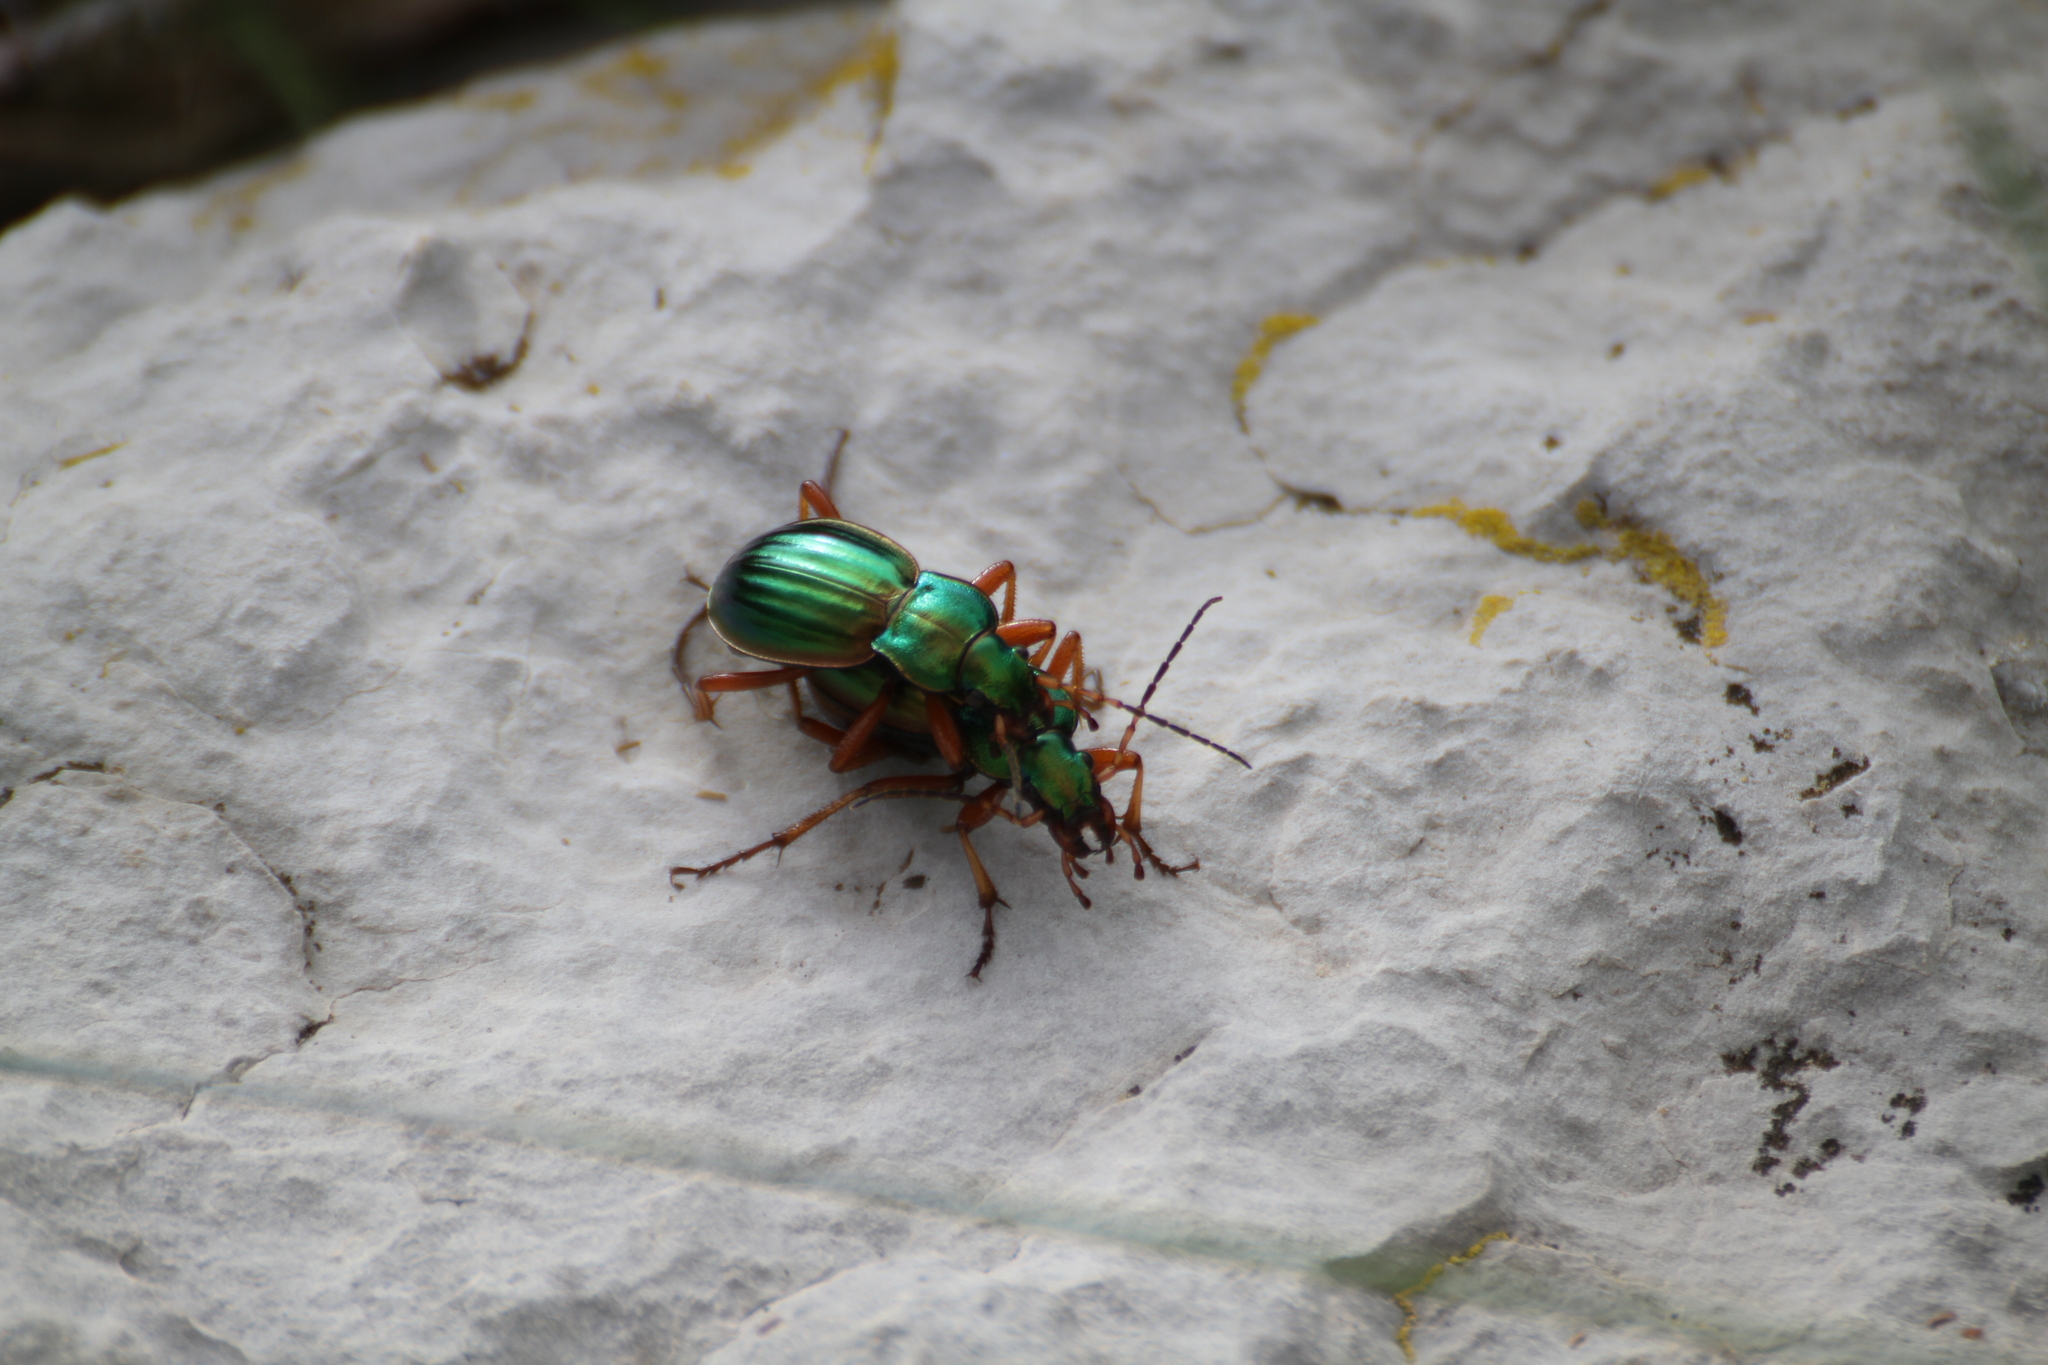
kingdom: Animalia
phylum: Arthropoda
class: Insecta
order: Coleoptera
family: Carabidae
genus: Carabus
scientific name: Carabus auratus
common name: Golden ground beetle
